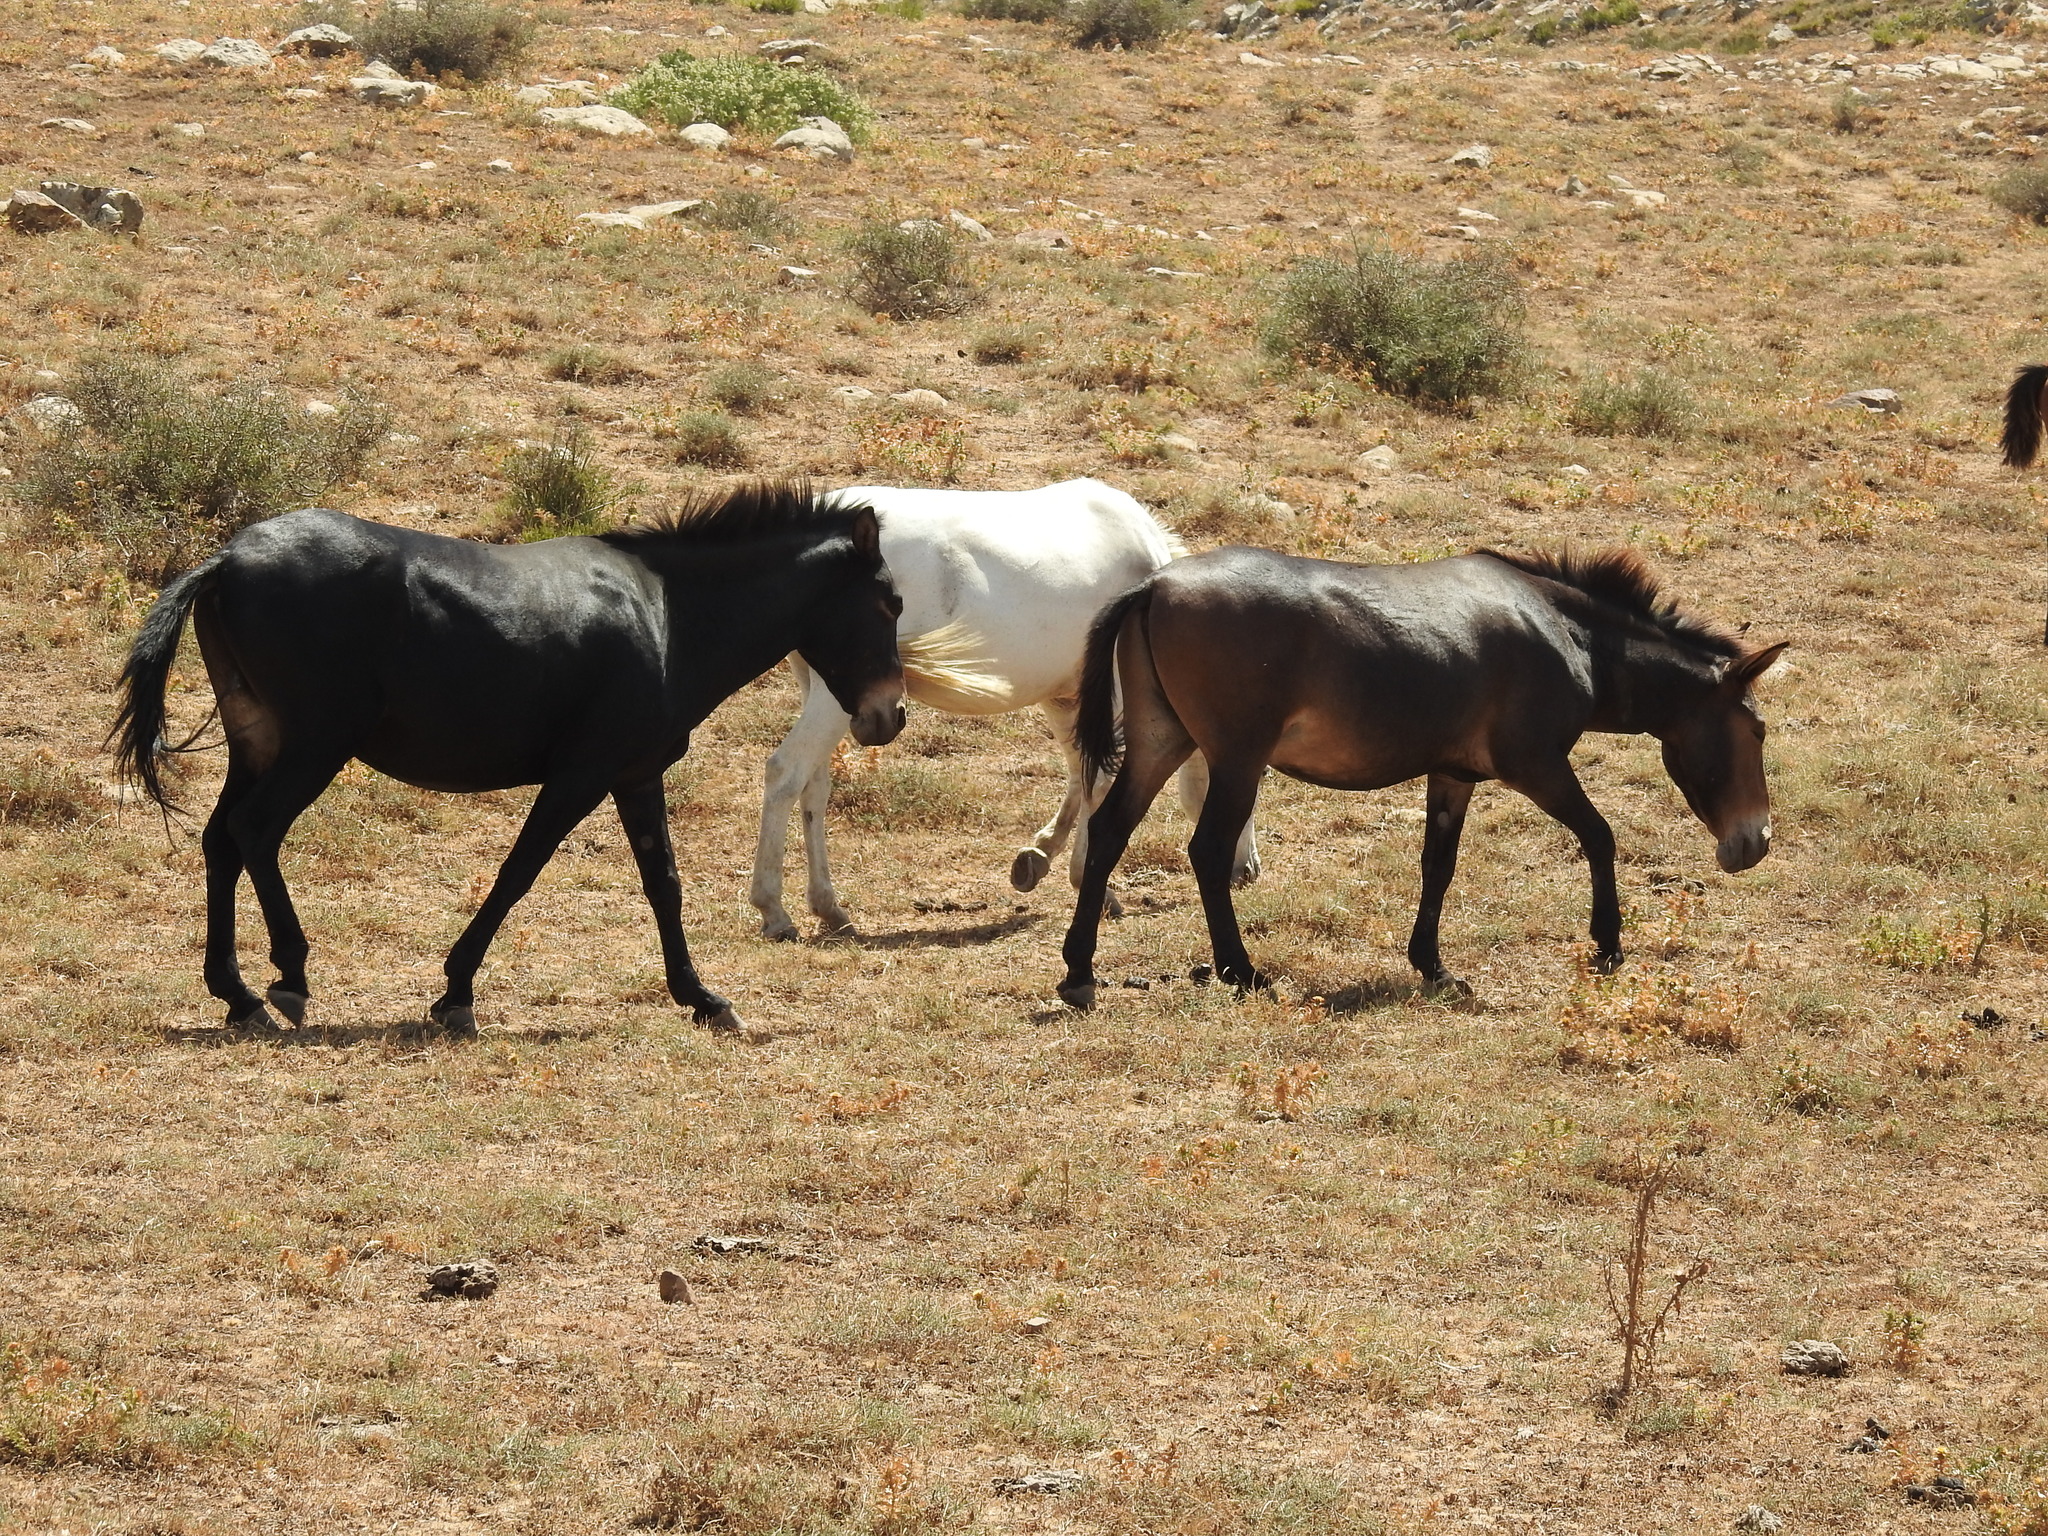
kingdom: Animalia
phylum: Chordata
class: Mammalia
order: Perissodactyla
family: Equidae
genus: Equus
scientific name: Equus
